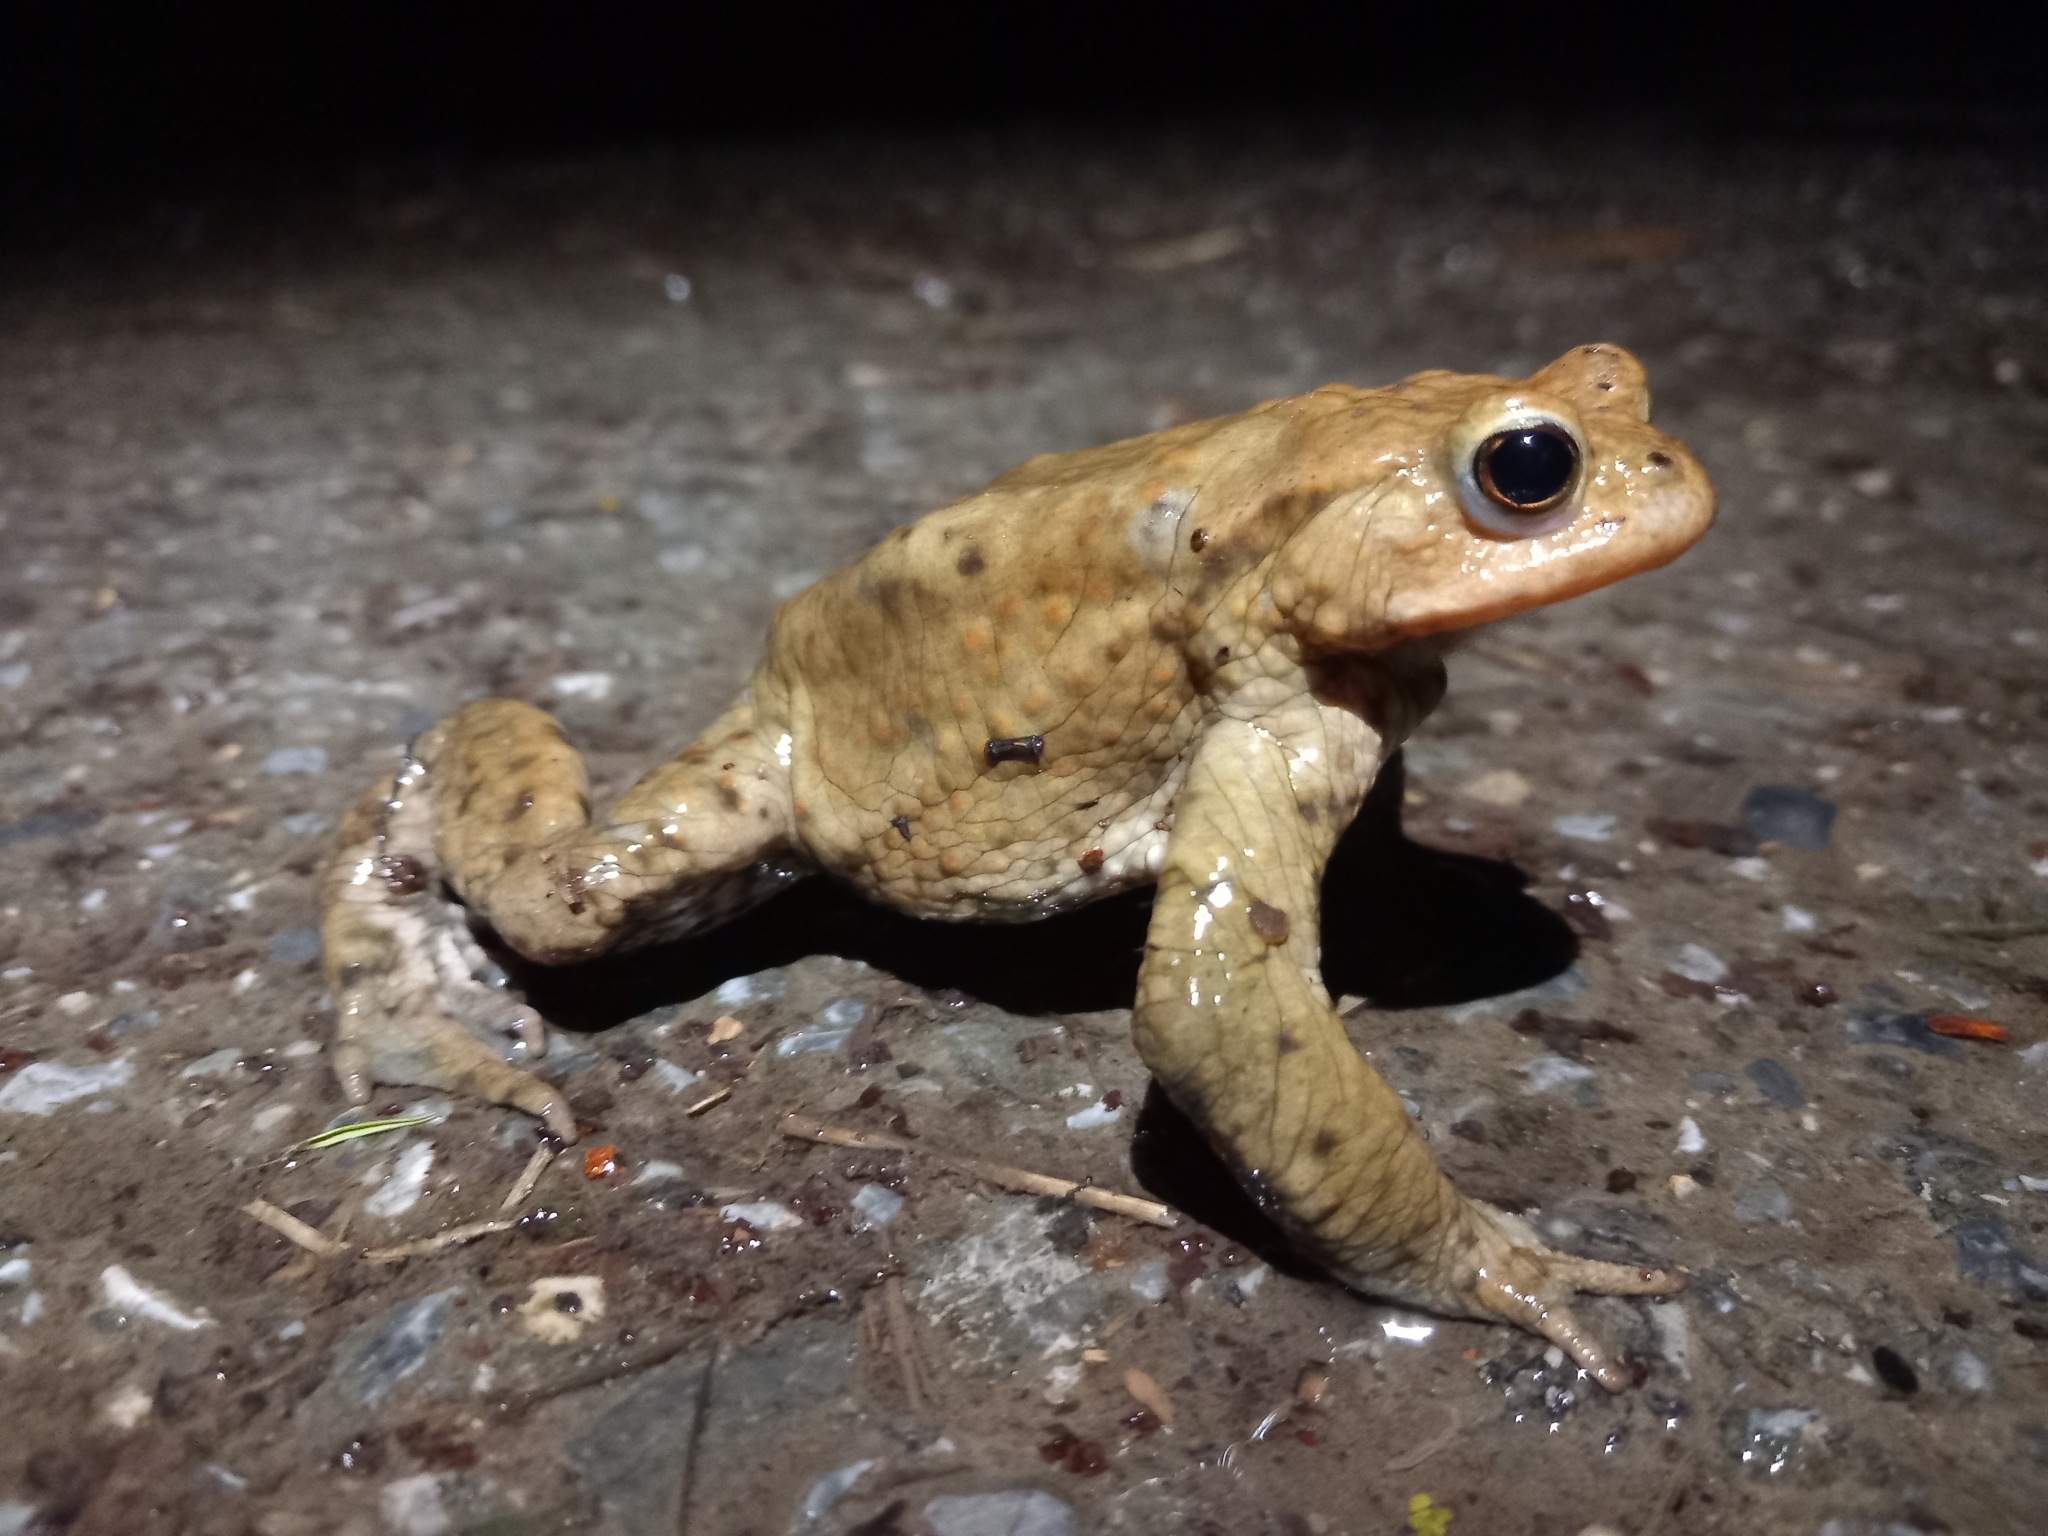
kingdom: Animalia
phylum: Chordata
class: Amphibia
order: Anura
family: Bufonidae
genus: Bufo
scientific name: Bufo bufo
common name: Common toad
